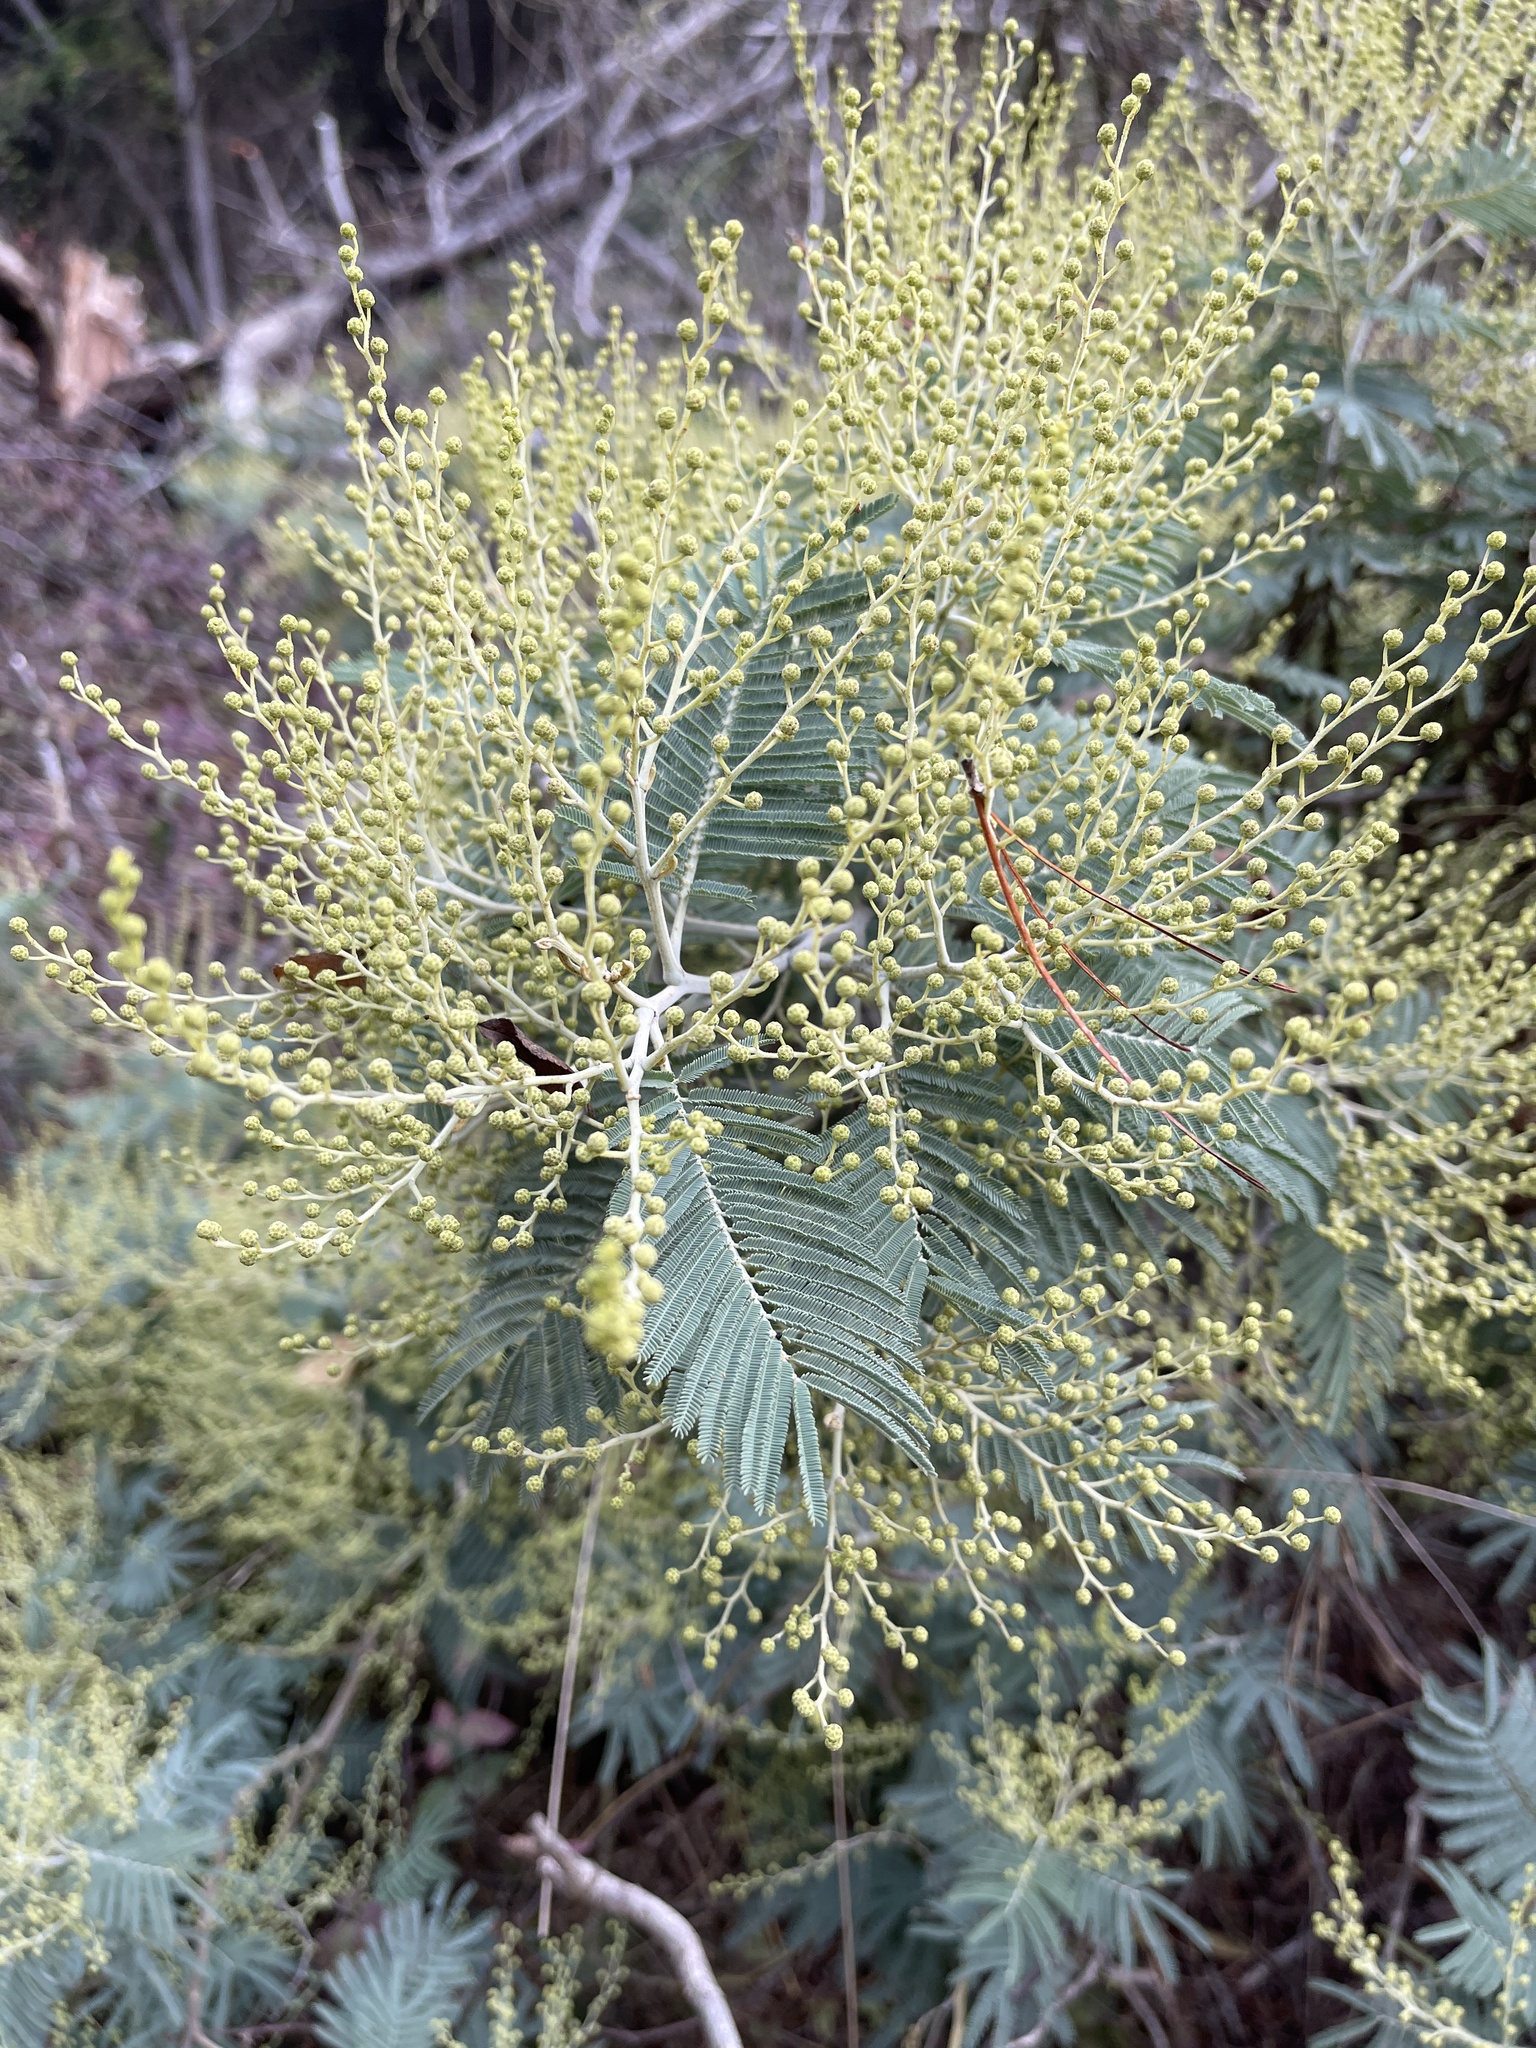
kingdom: Plantae
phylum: Tracheophyta
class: Magnoliopsida
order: Fabales
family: Fabaceae
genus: Acacia
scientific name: Acacia dealbata
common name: Silver wattle
